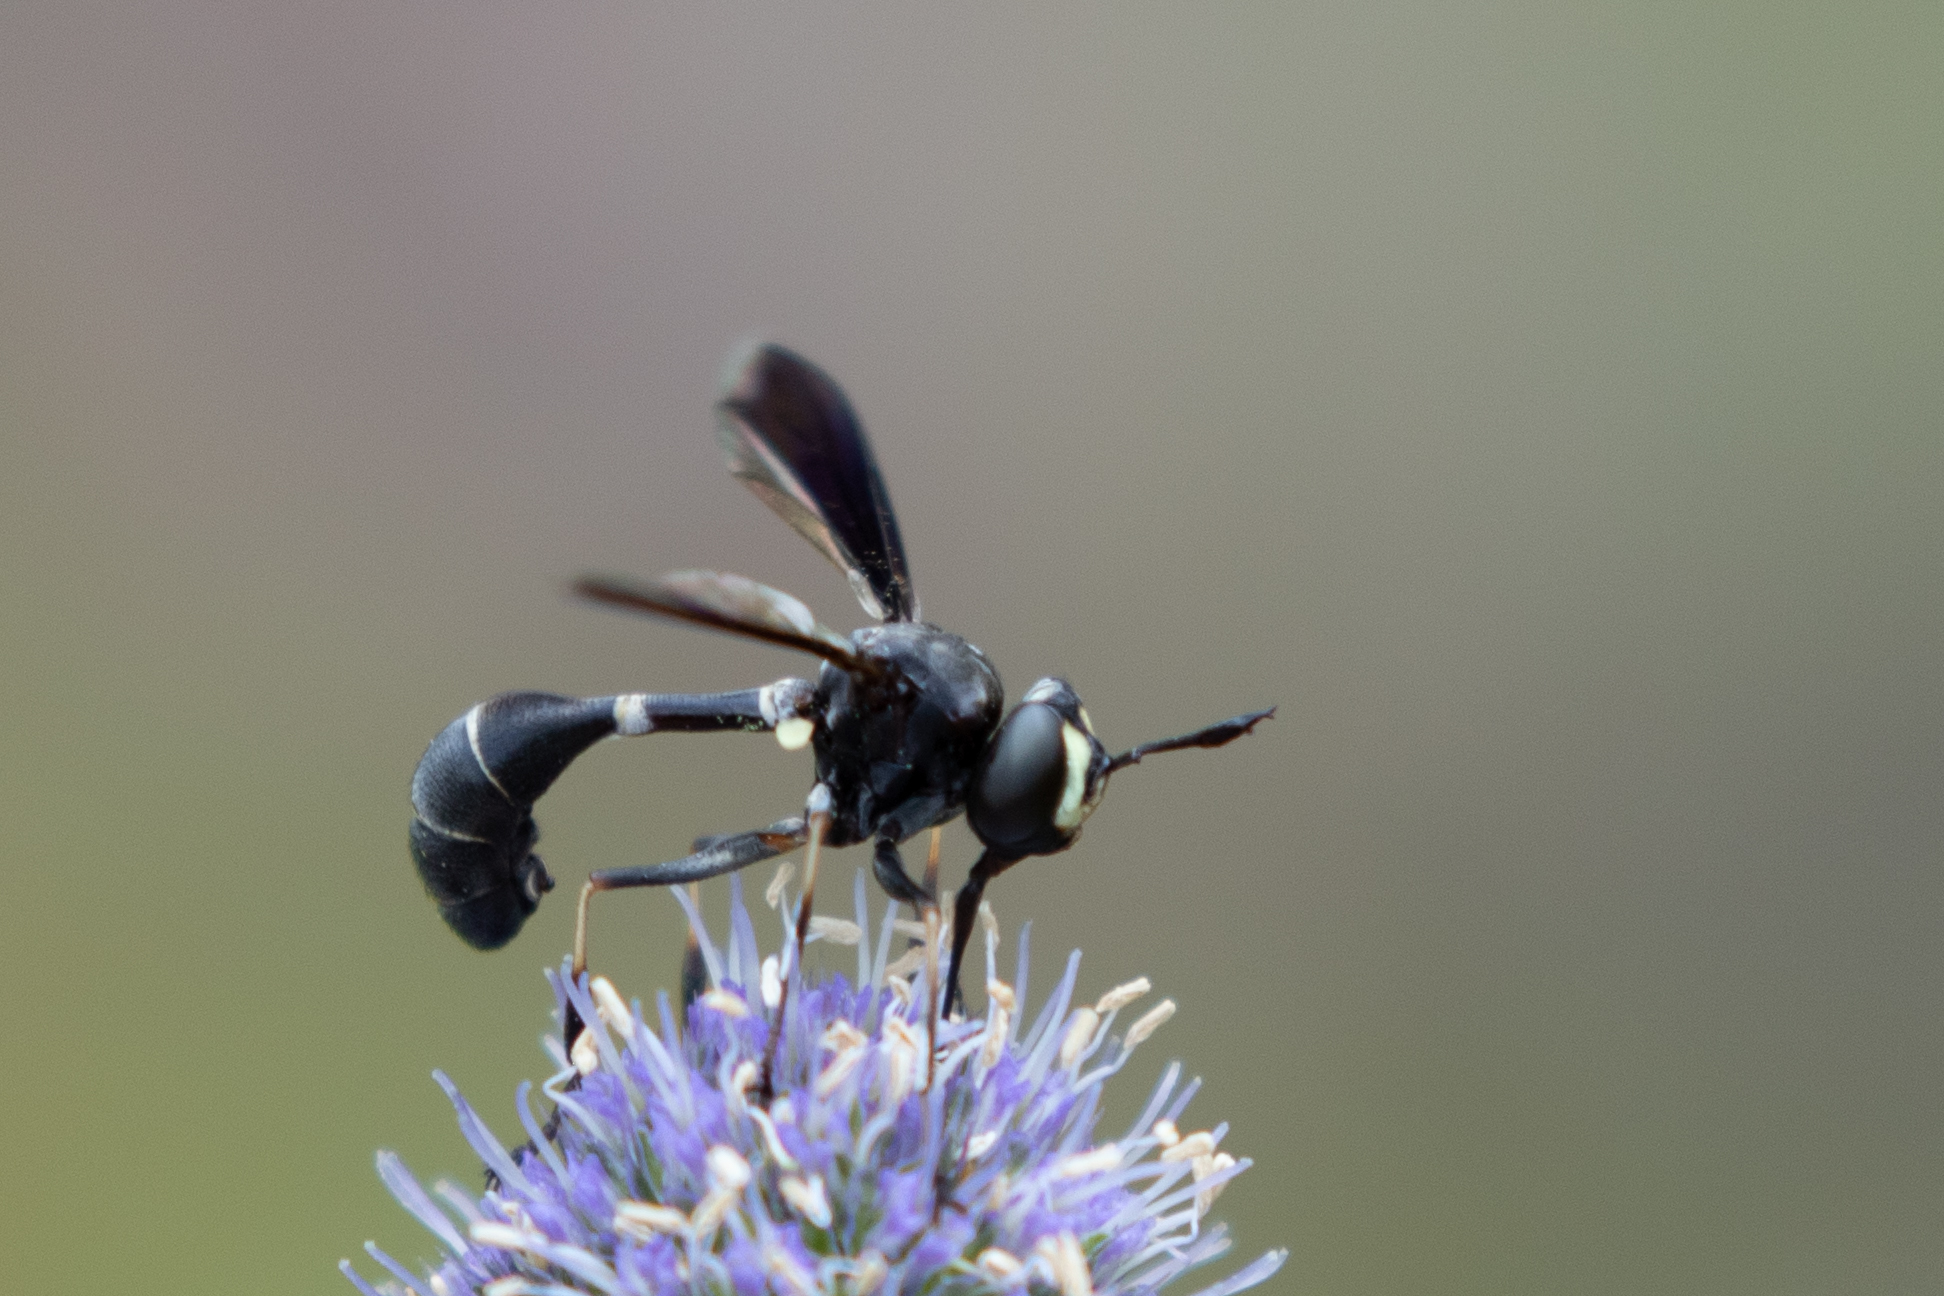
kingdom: Animalia
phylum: Arthropoda
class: Insecta
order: Diptera
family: Conopidae
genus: Physocephala
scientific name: Physocephala tibialis
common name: Common eastern physocephala
